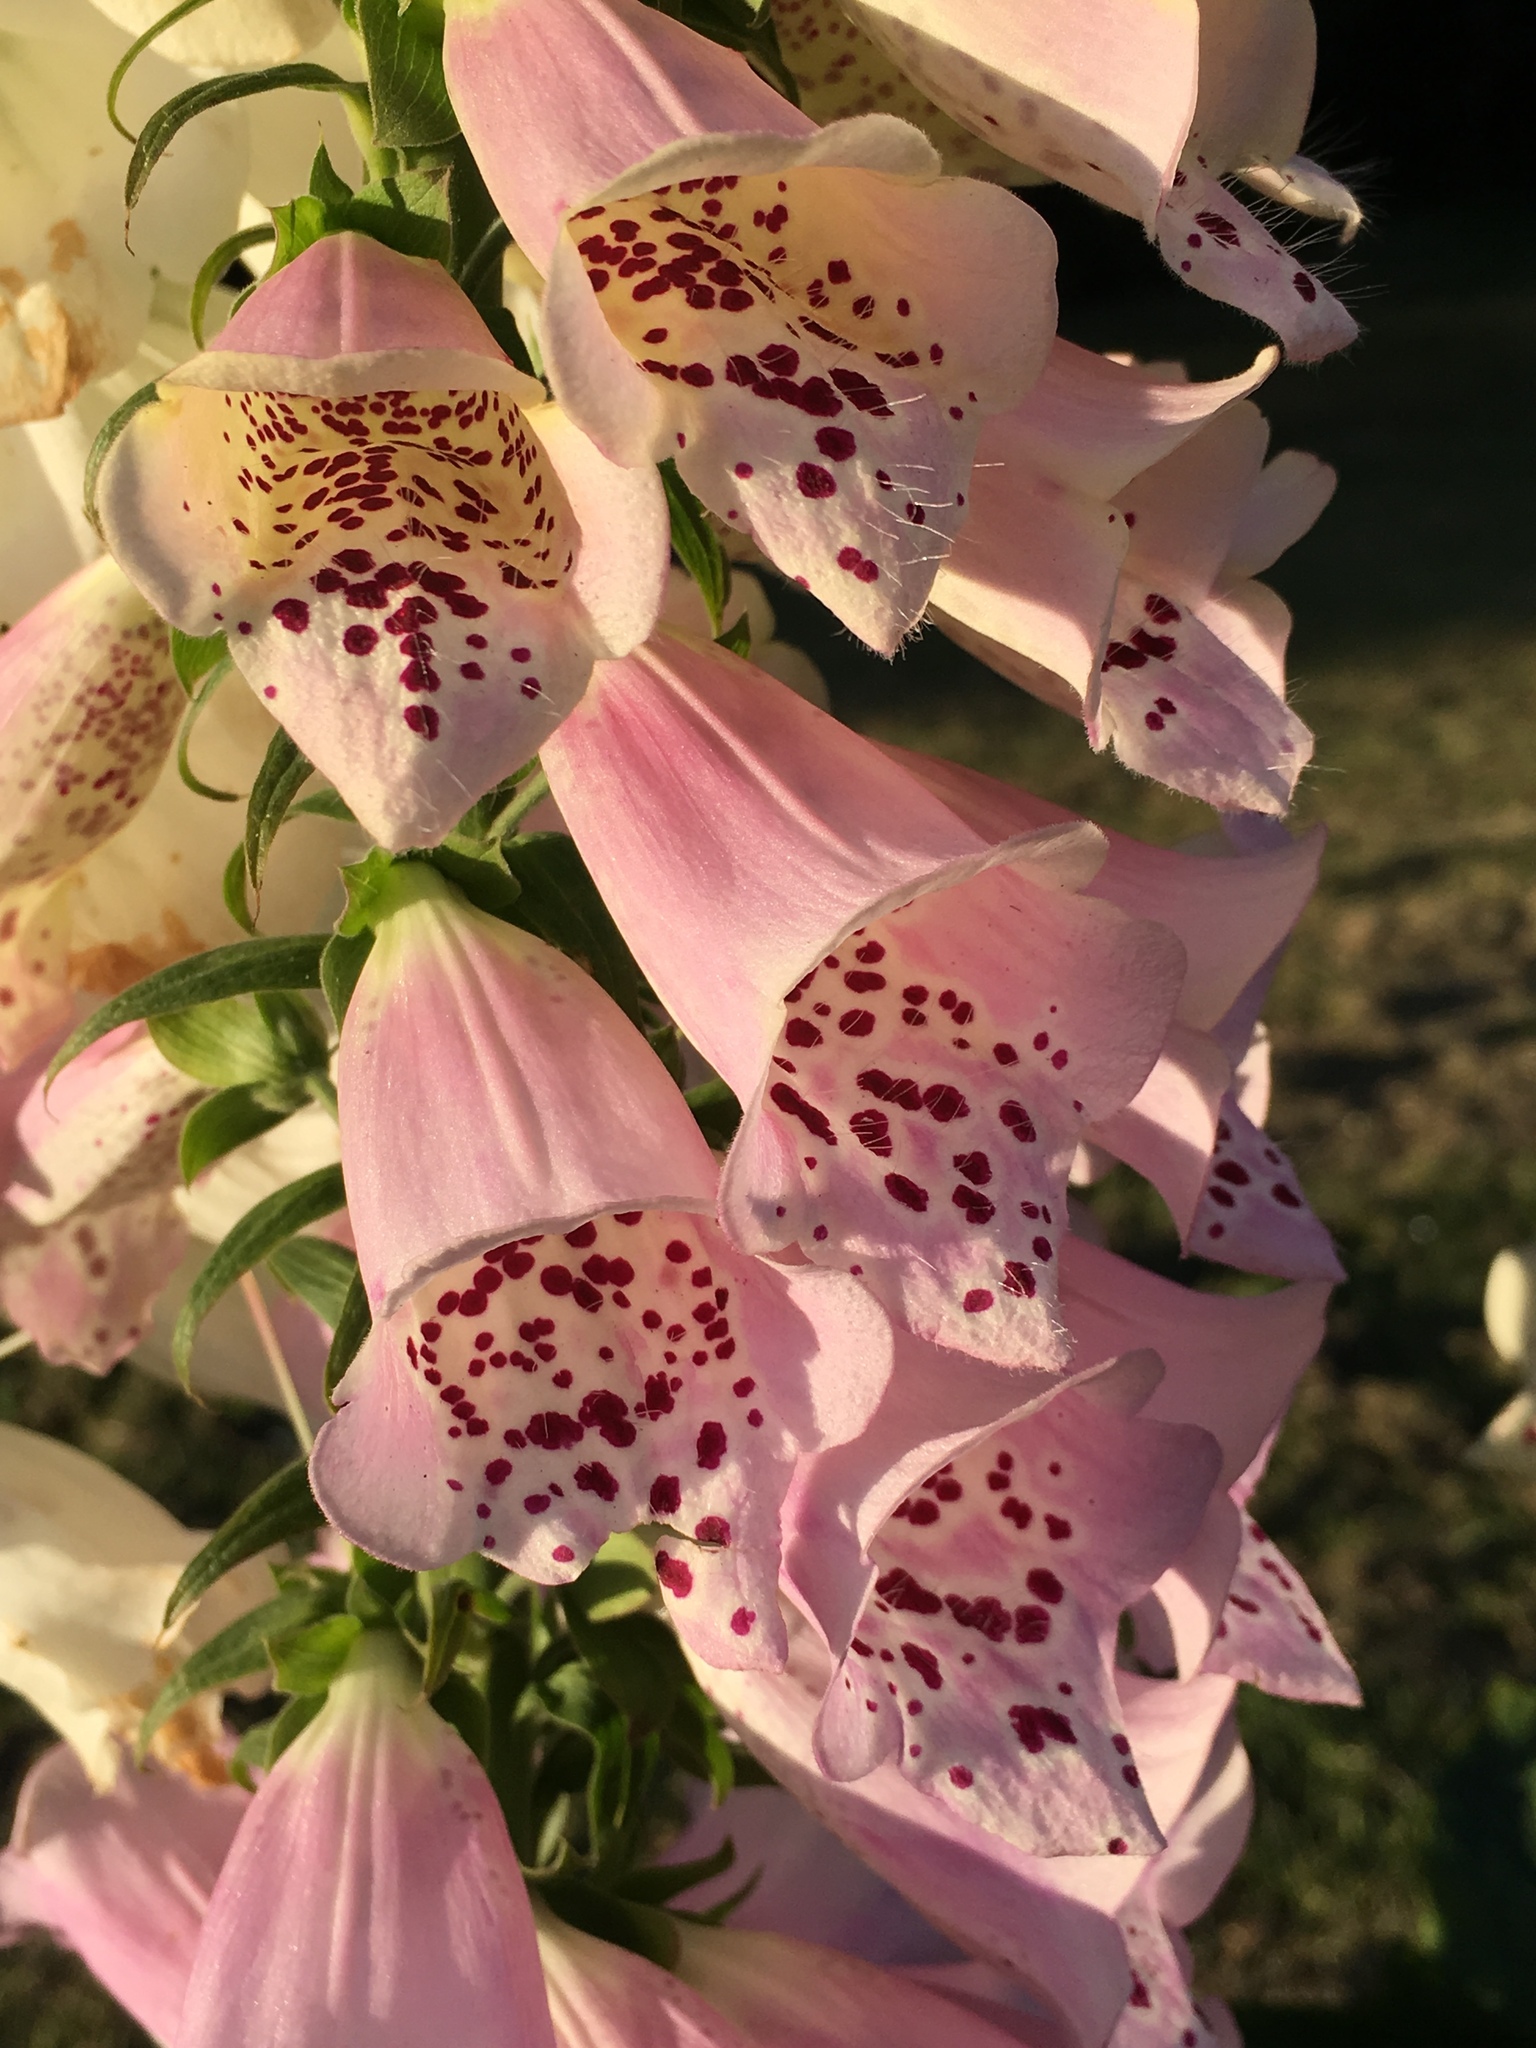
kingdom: Plantae
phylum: Tracheophyta
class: Magnoliopsida
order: Lamiales
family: Plantaginaceae
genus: Digitalis
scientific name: Digitalis purpurea
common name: Foxglove
